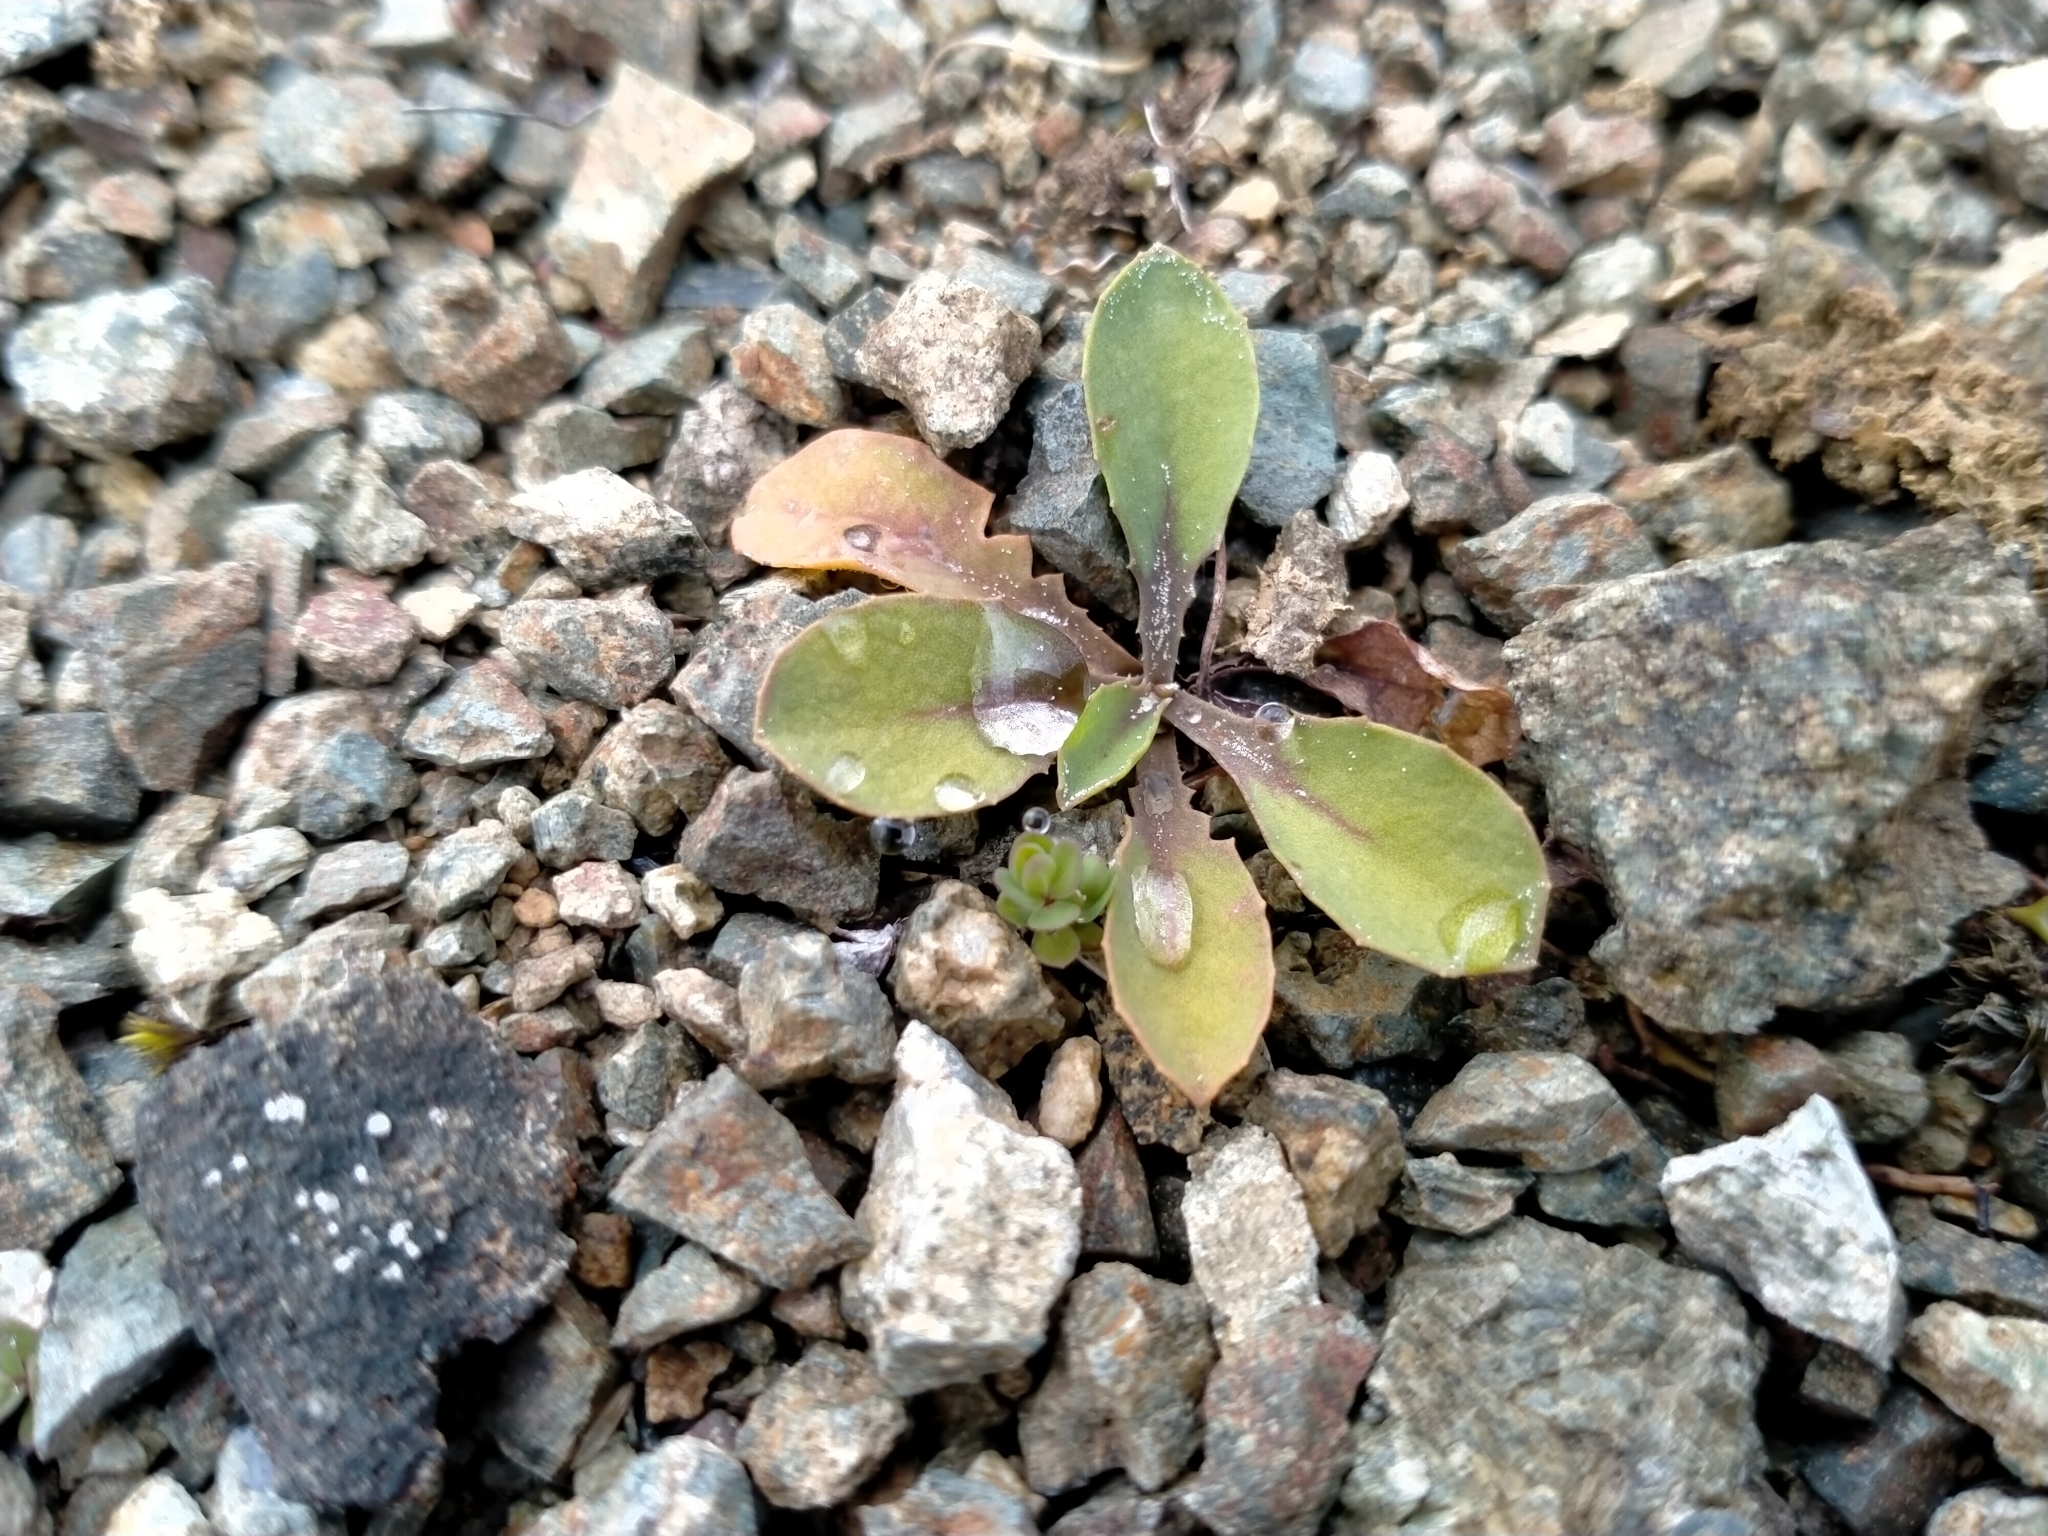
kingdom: Plantae
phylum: Tracheophyta
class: Magnoliopsida
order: Asterales
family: Asteraceae
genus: Sonchus
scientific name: Sonchus novae-zelandiae
